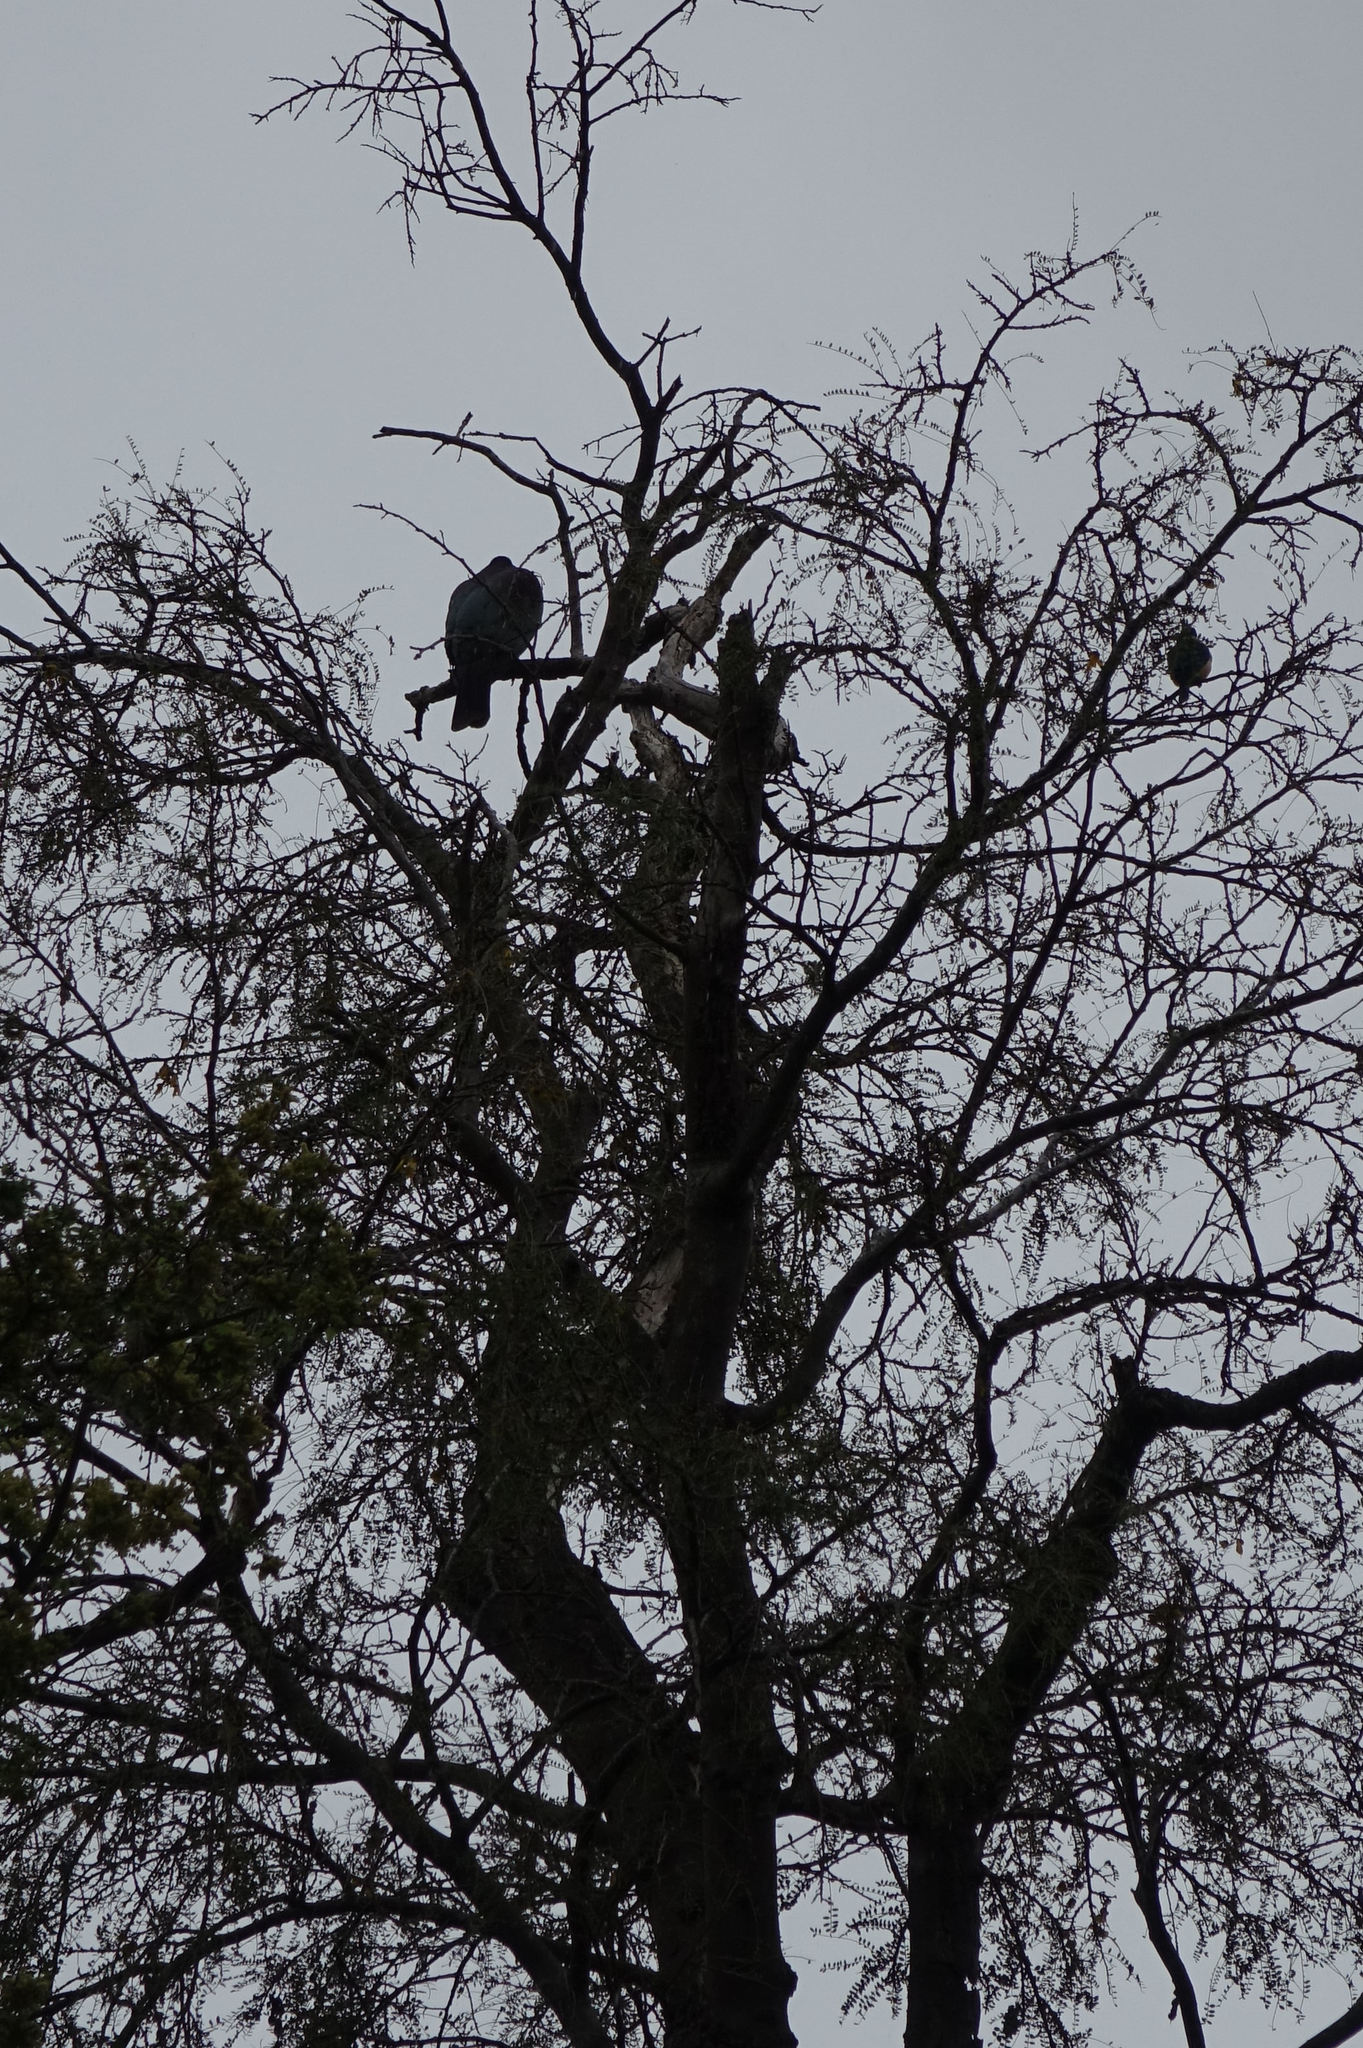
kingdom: Animalia
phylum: Chordata
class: Aves
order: Columbiformes
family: Columbidae
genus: Hemiphaga
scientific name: Hemiphaga novaeseelandiae
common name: New zealand pigeon
